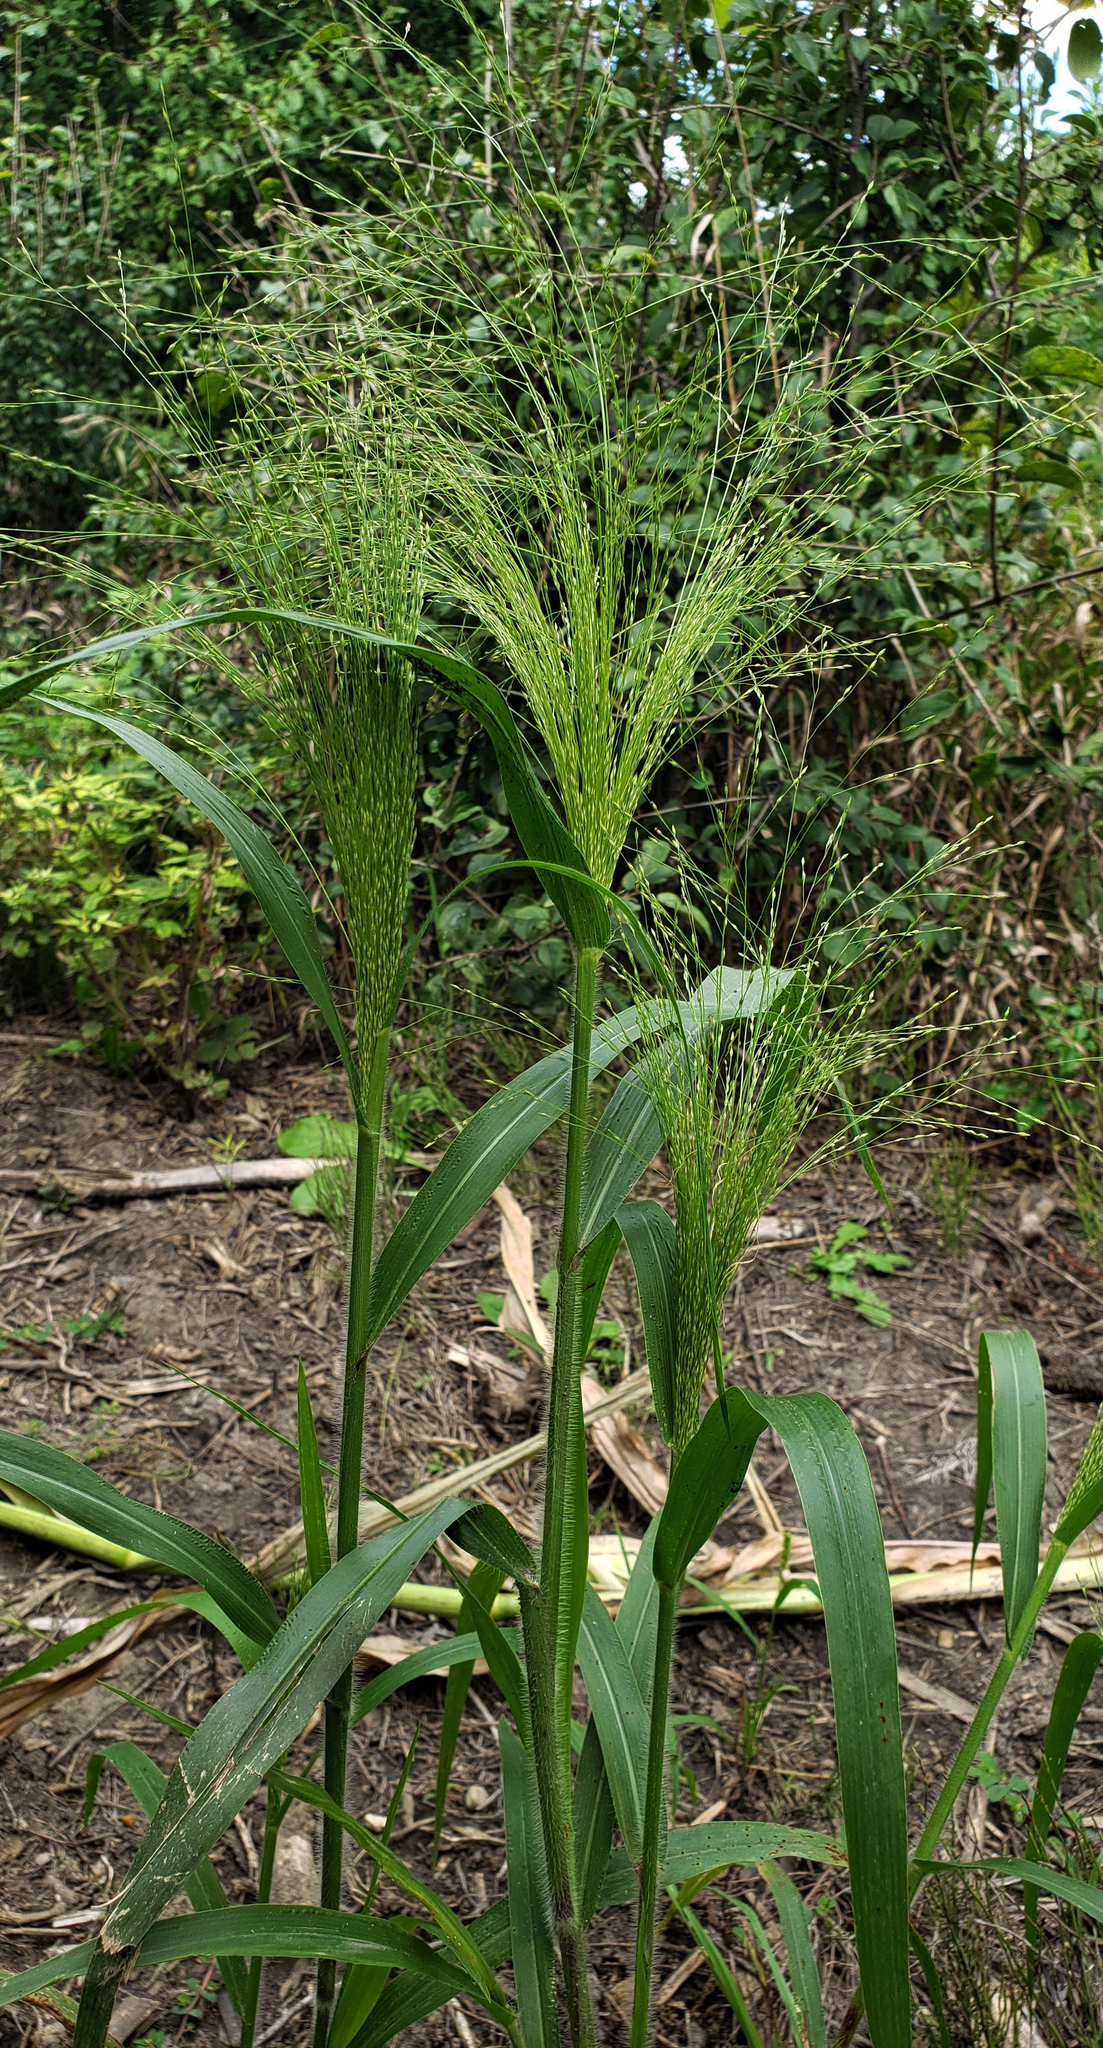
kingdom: Plantae
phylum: Tracheophyta
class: Liliopsida
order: Poales
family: Poaceae
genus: Panicum
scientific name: Panicum capillare
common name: Witch-grass
